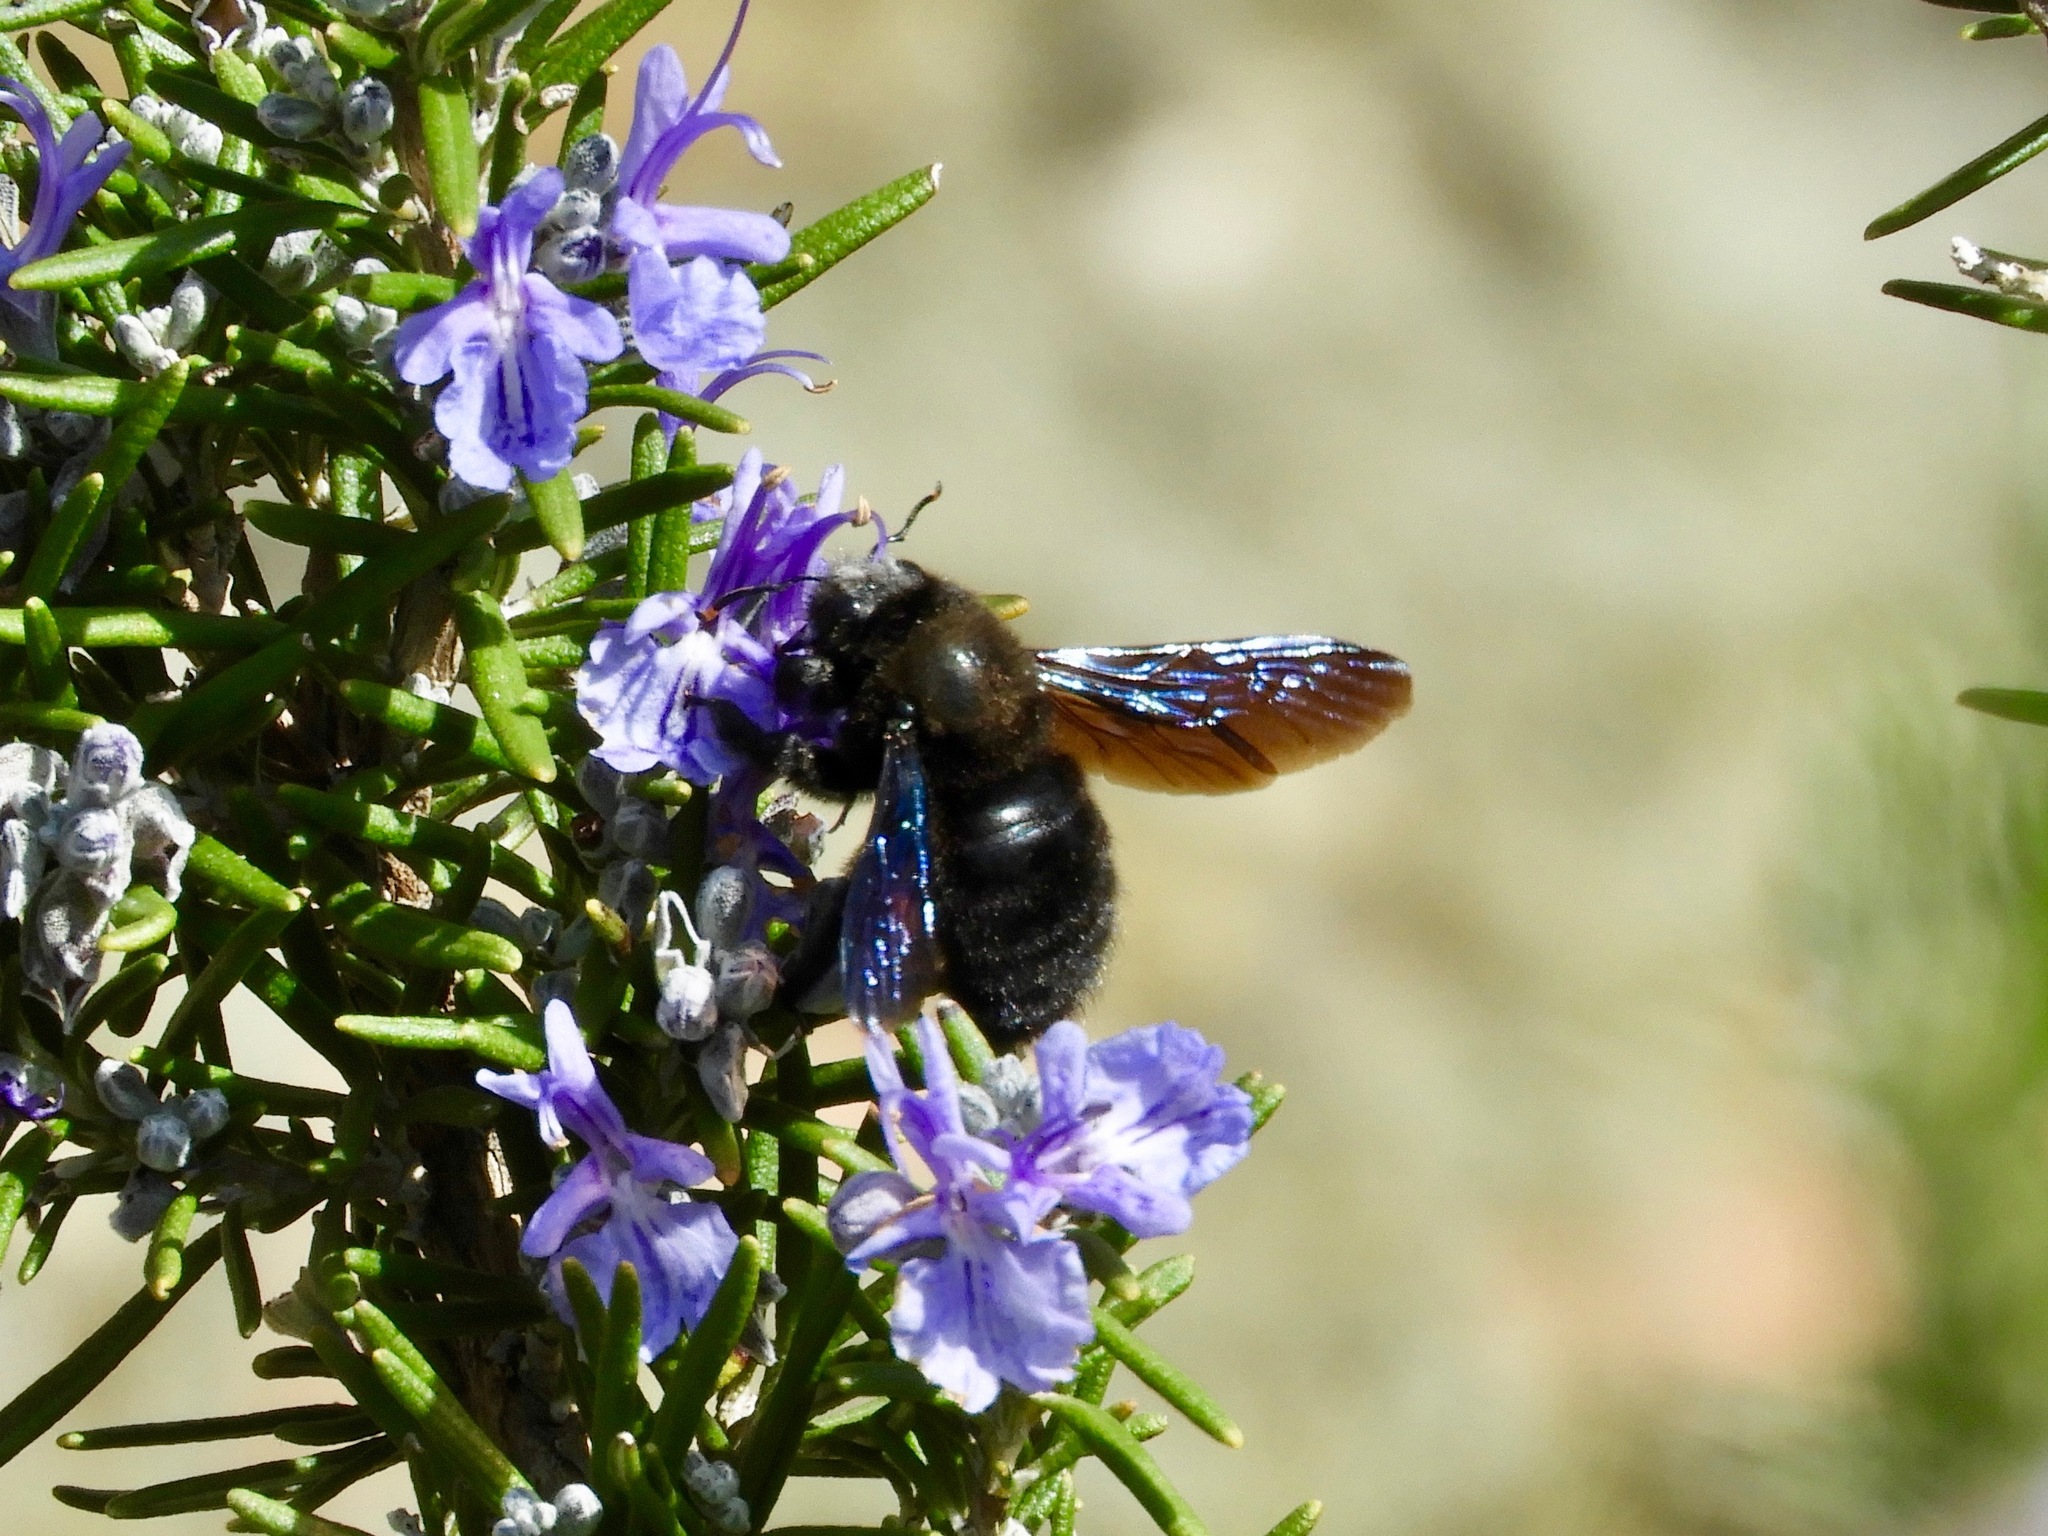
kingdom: Animalia
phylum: Arthropoda
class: Insecta
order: Hymenoptera
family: Apidae
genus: Xylocopa
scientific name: Xylocopa violacea
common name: Violet carpenter bee
